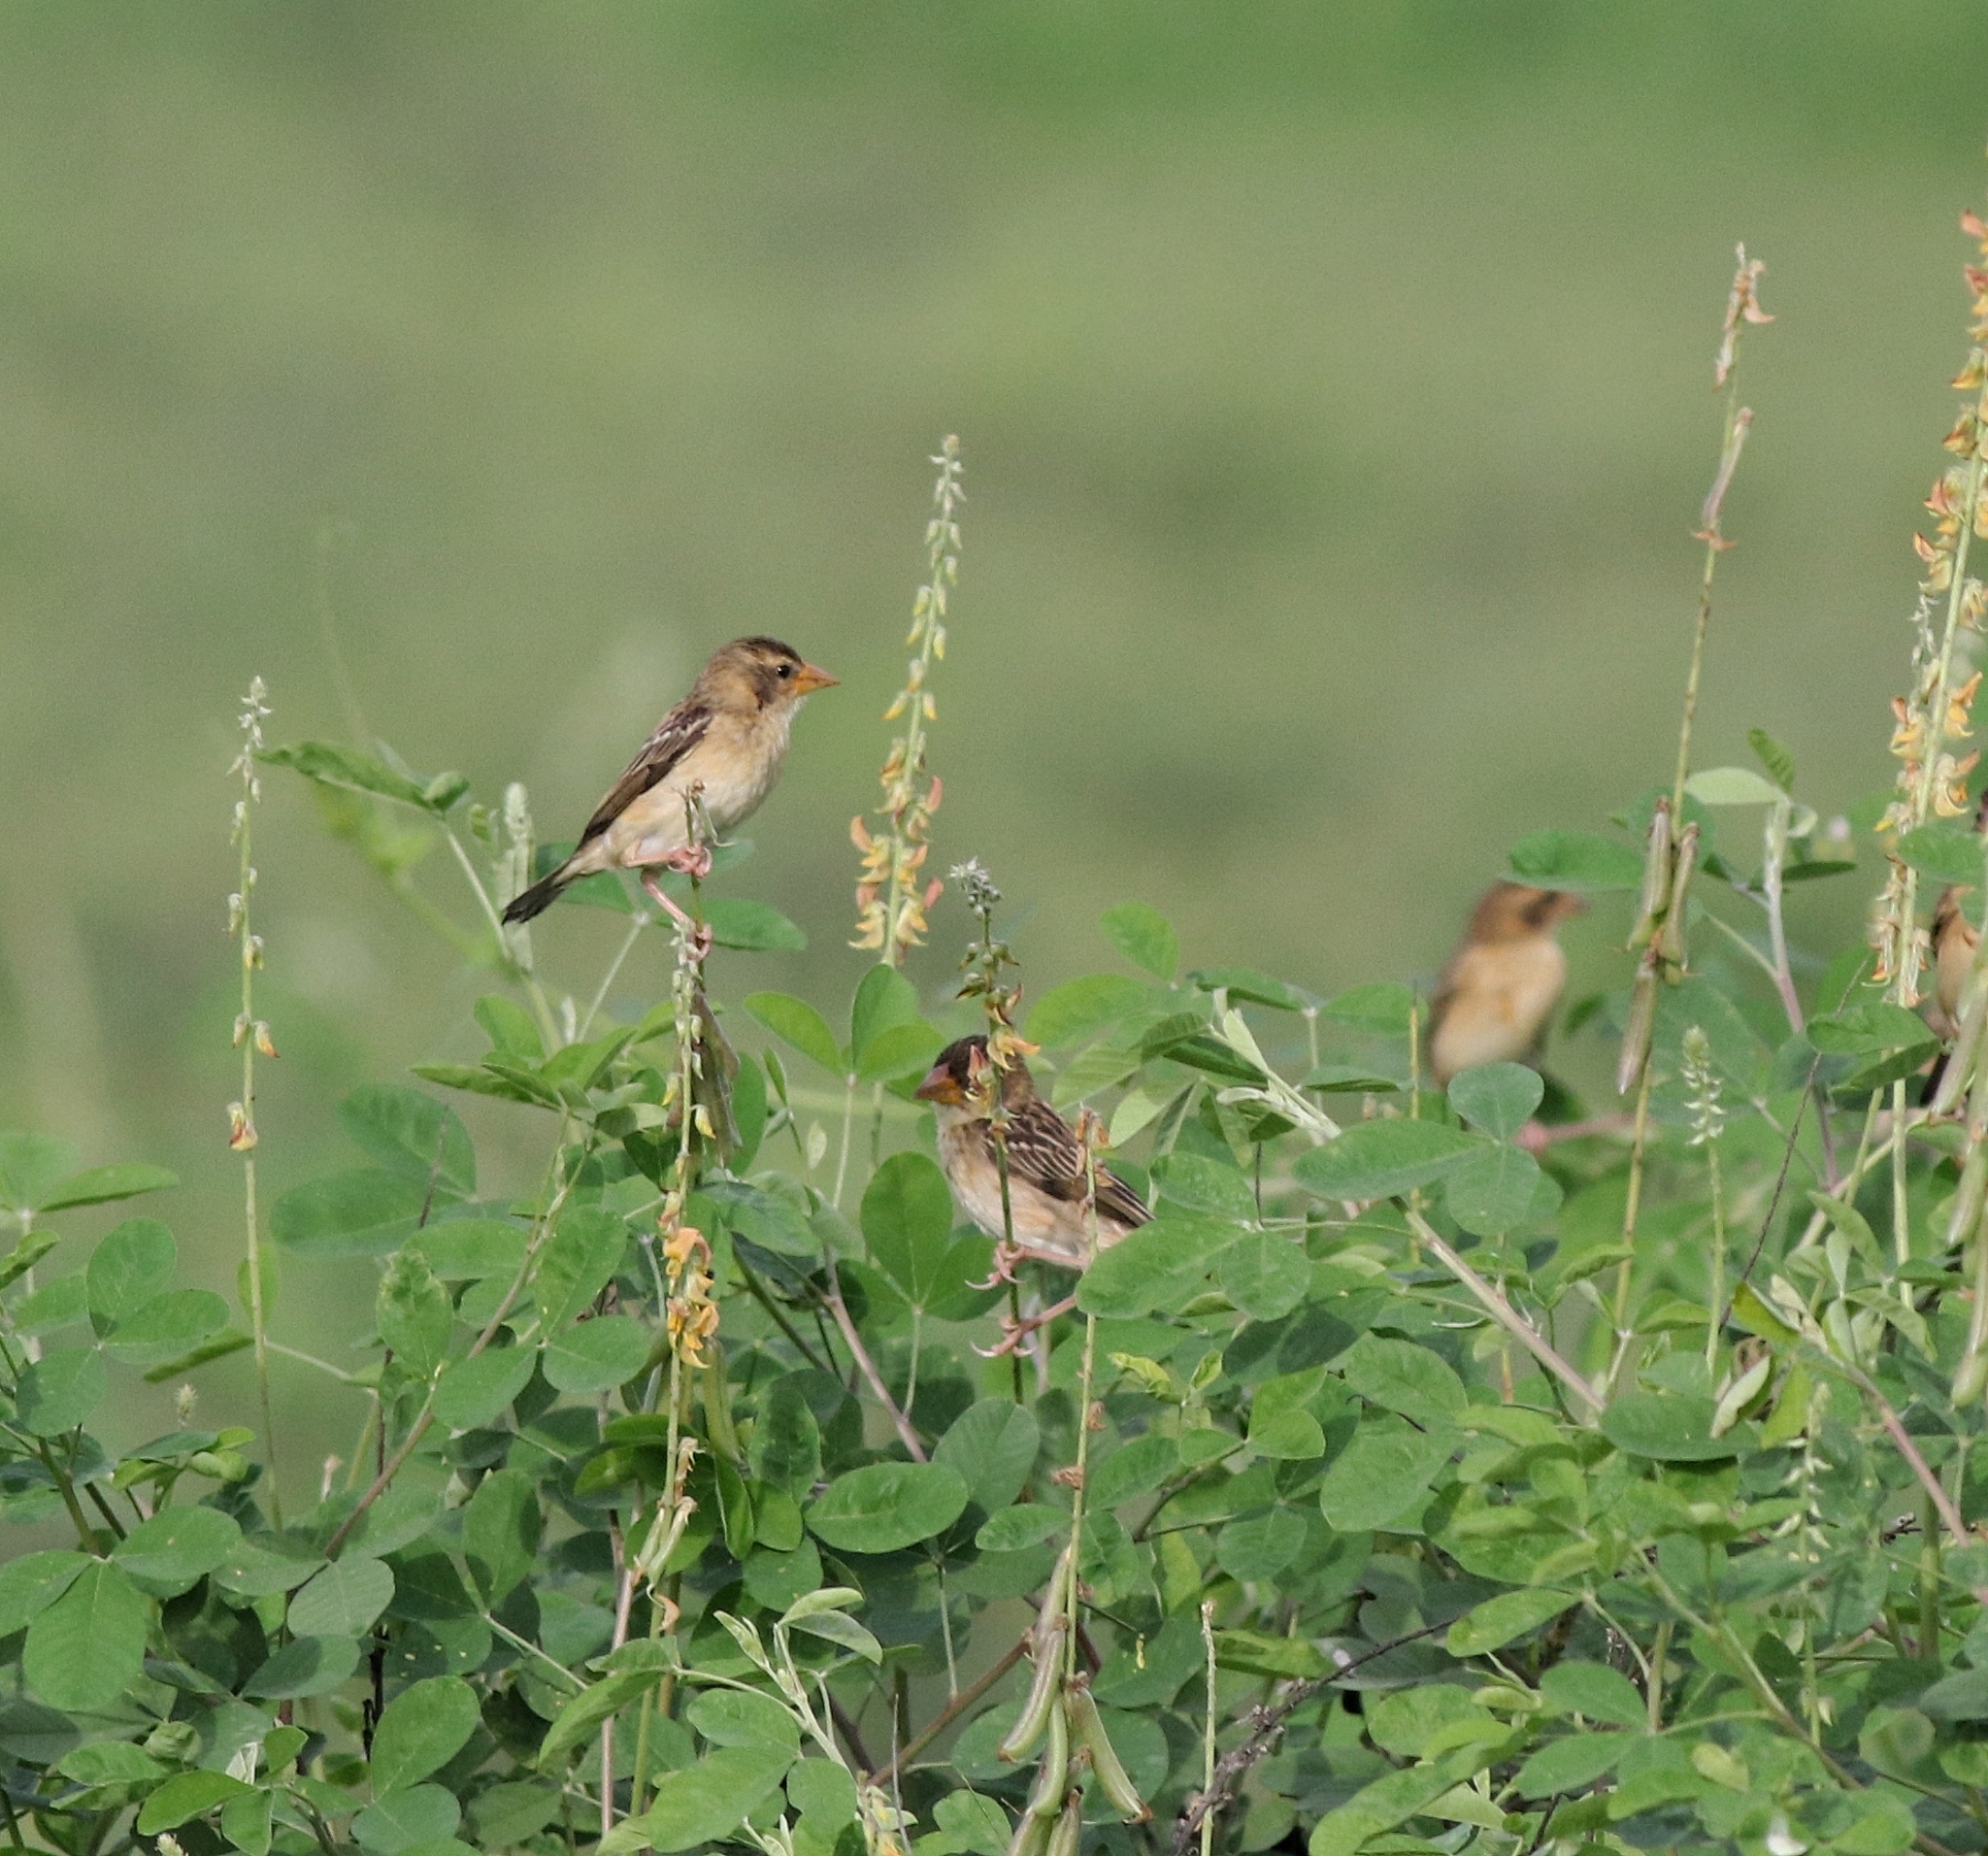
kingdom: Animalia
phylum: Chordata
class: Aves
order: Passeriformes
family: Ploceidae
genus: Ploceus
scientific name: Ploceus philippinus
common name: Baya weaver
